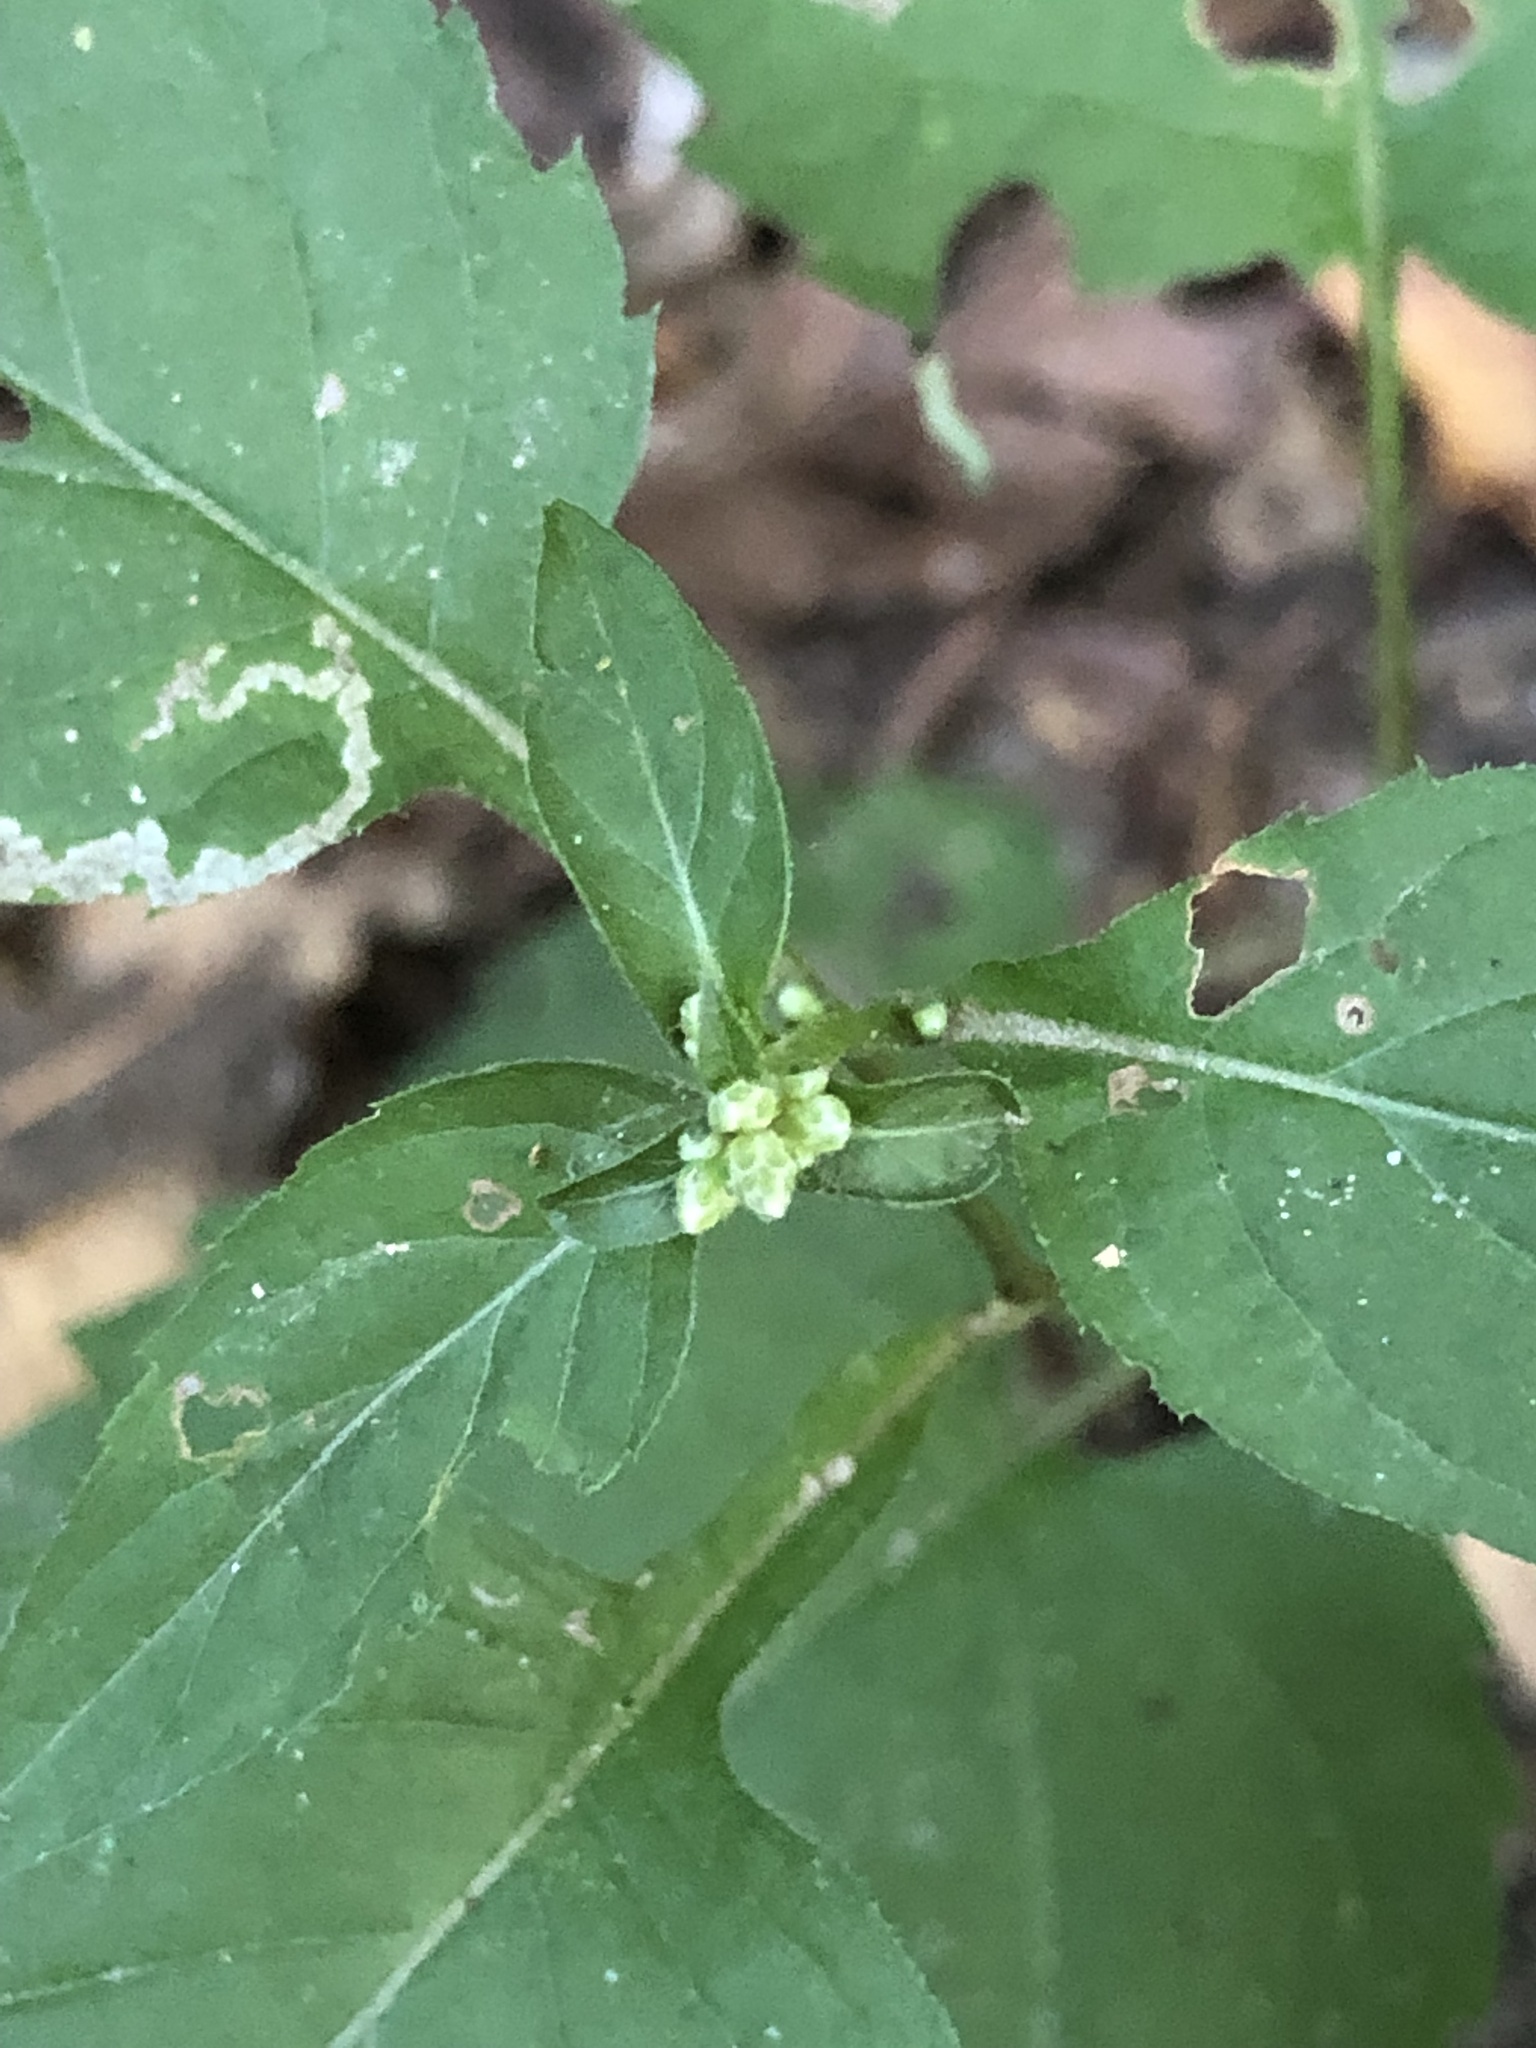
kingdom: Plantae
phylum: Tracheophyta
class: Magnoliopsida
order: Asterales
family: Asteraceae
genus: Eurybia
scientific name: Eurybia divaricata
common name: White wood aster
